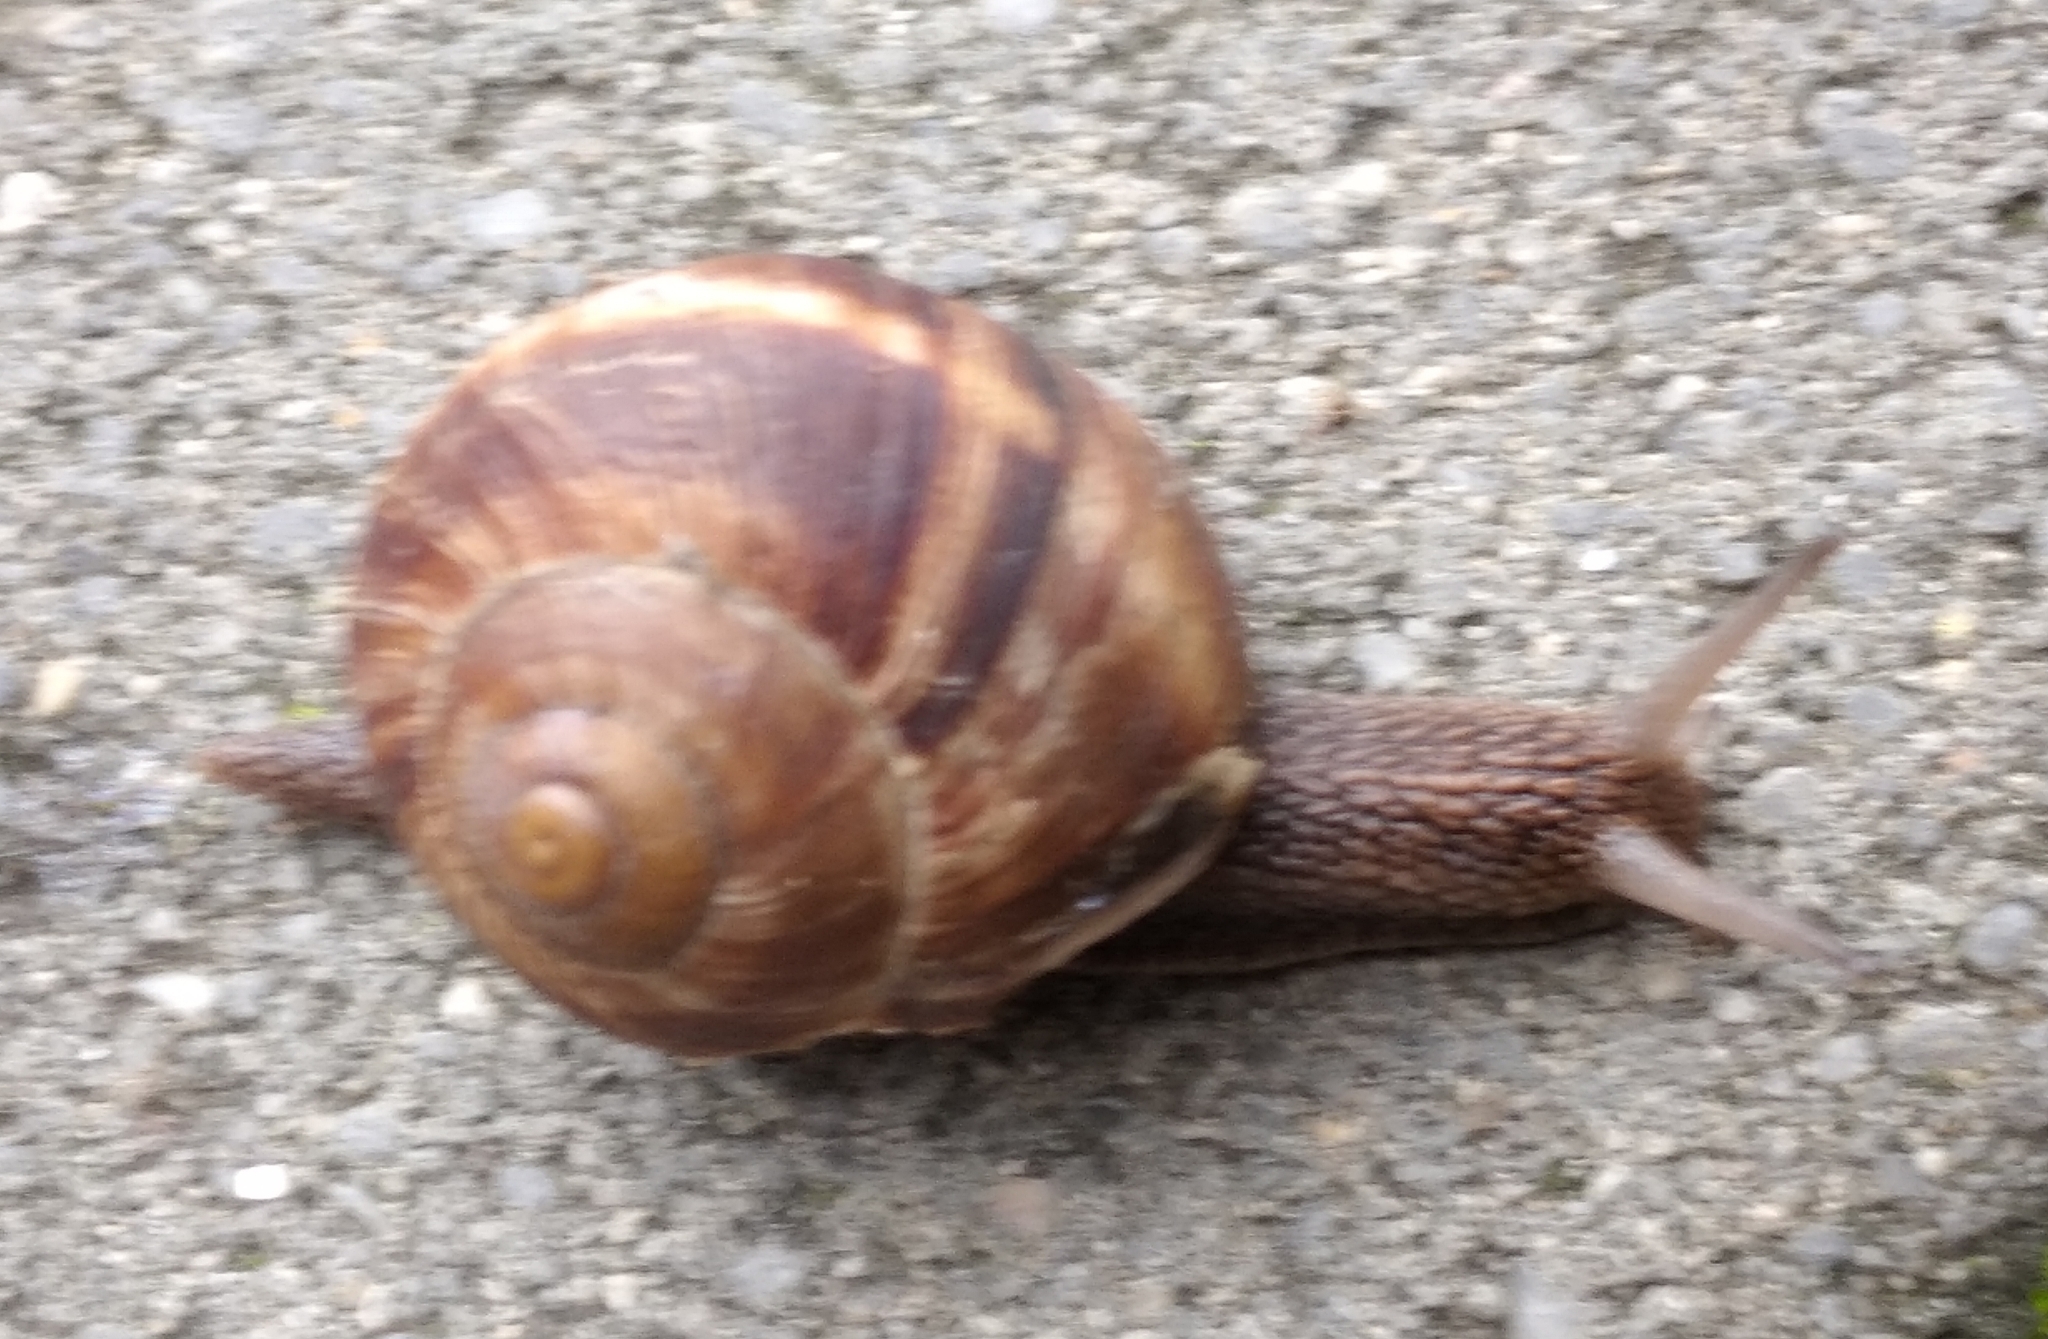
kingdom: Animalia
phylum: Mollusca
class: Gastropoda
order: Stylommatophora
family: Helicidae
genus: Helix
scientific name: Helix lucorum
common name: Turkish snail
